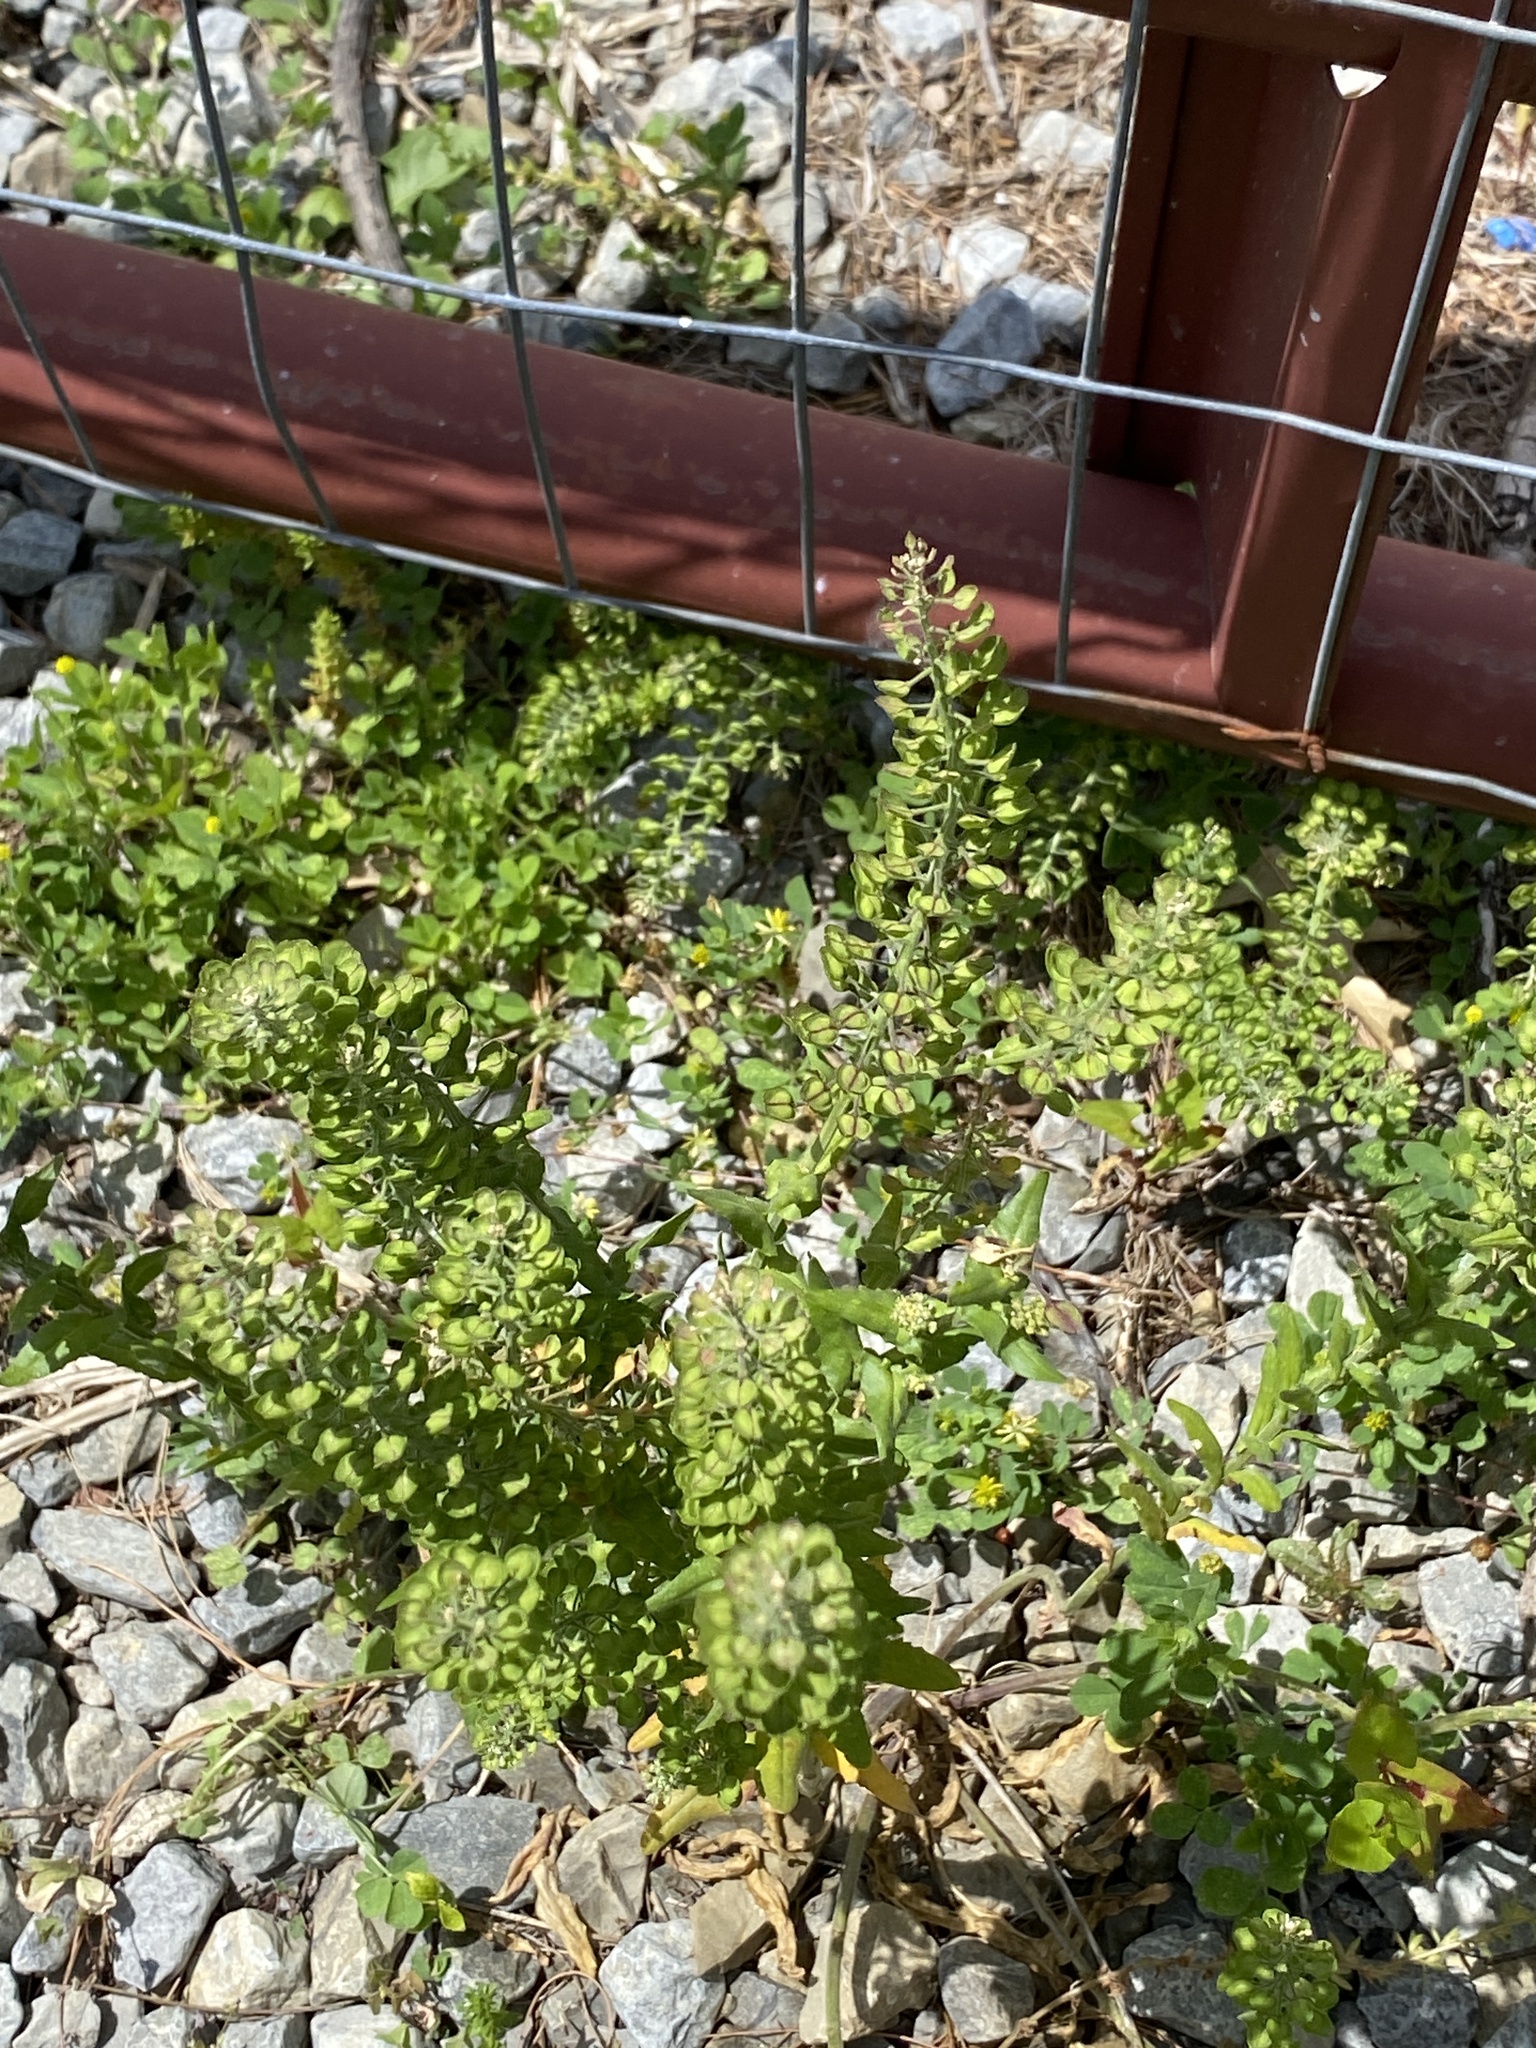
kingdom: Plantae
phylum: Tracheophyta
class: Magnoliopsida
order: Brassicales
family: Brassicaceae
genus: Lepidium
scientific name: Lepidium campestre
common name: Field pepperwort
